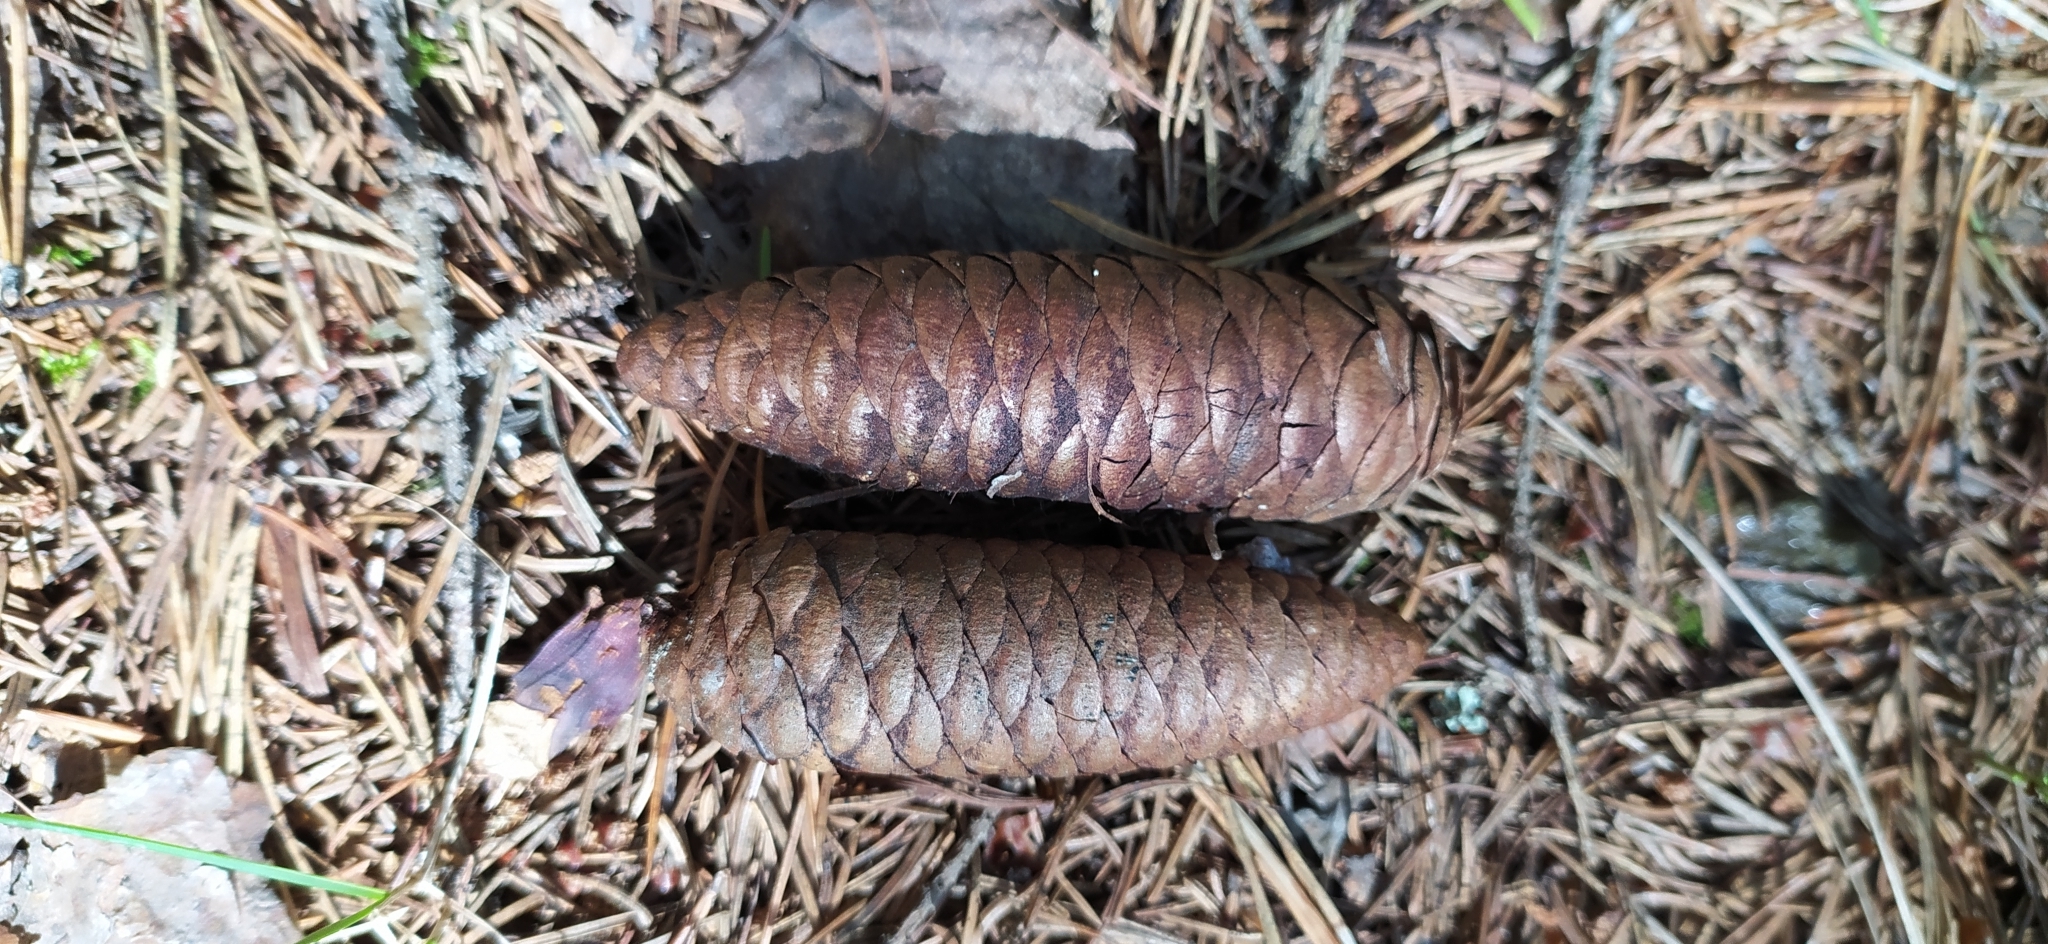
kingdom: Plantae
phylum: Tracheophyta
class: Pinopsida
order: Pinales
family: Pinaceae
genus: Picea
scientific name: Picea obovata
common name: Siberian spruce
